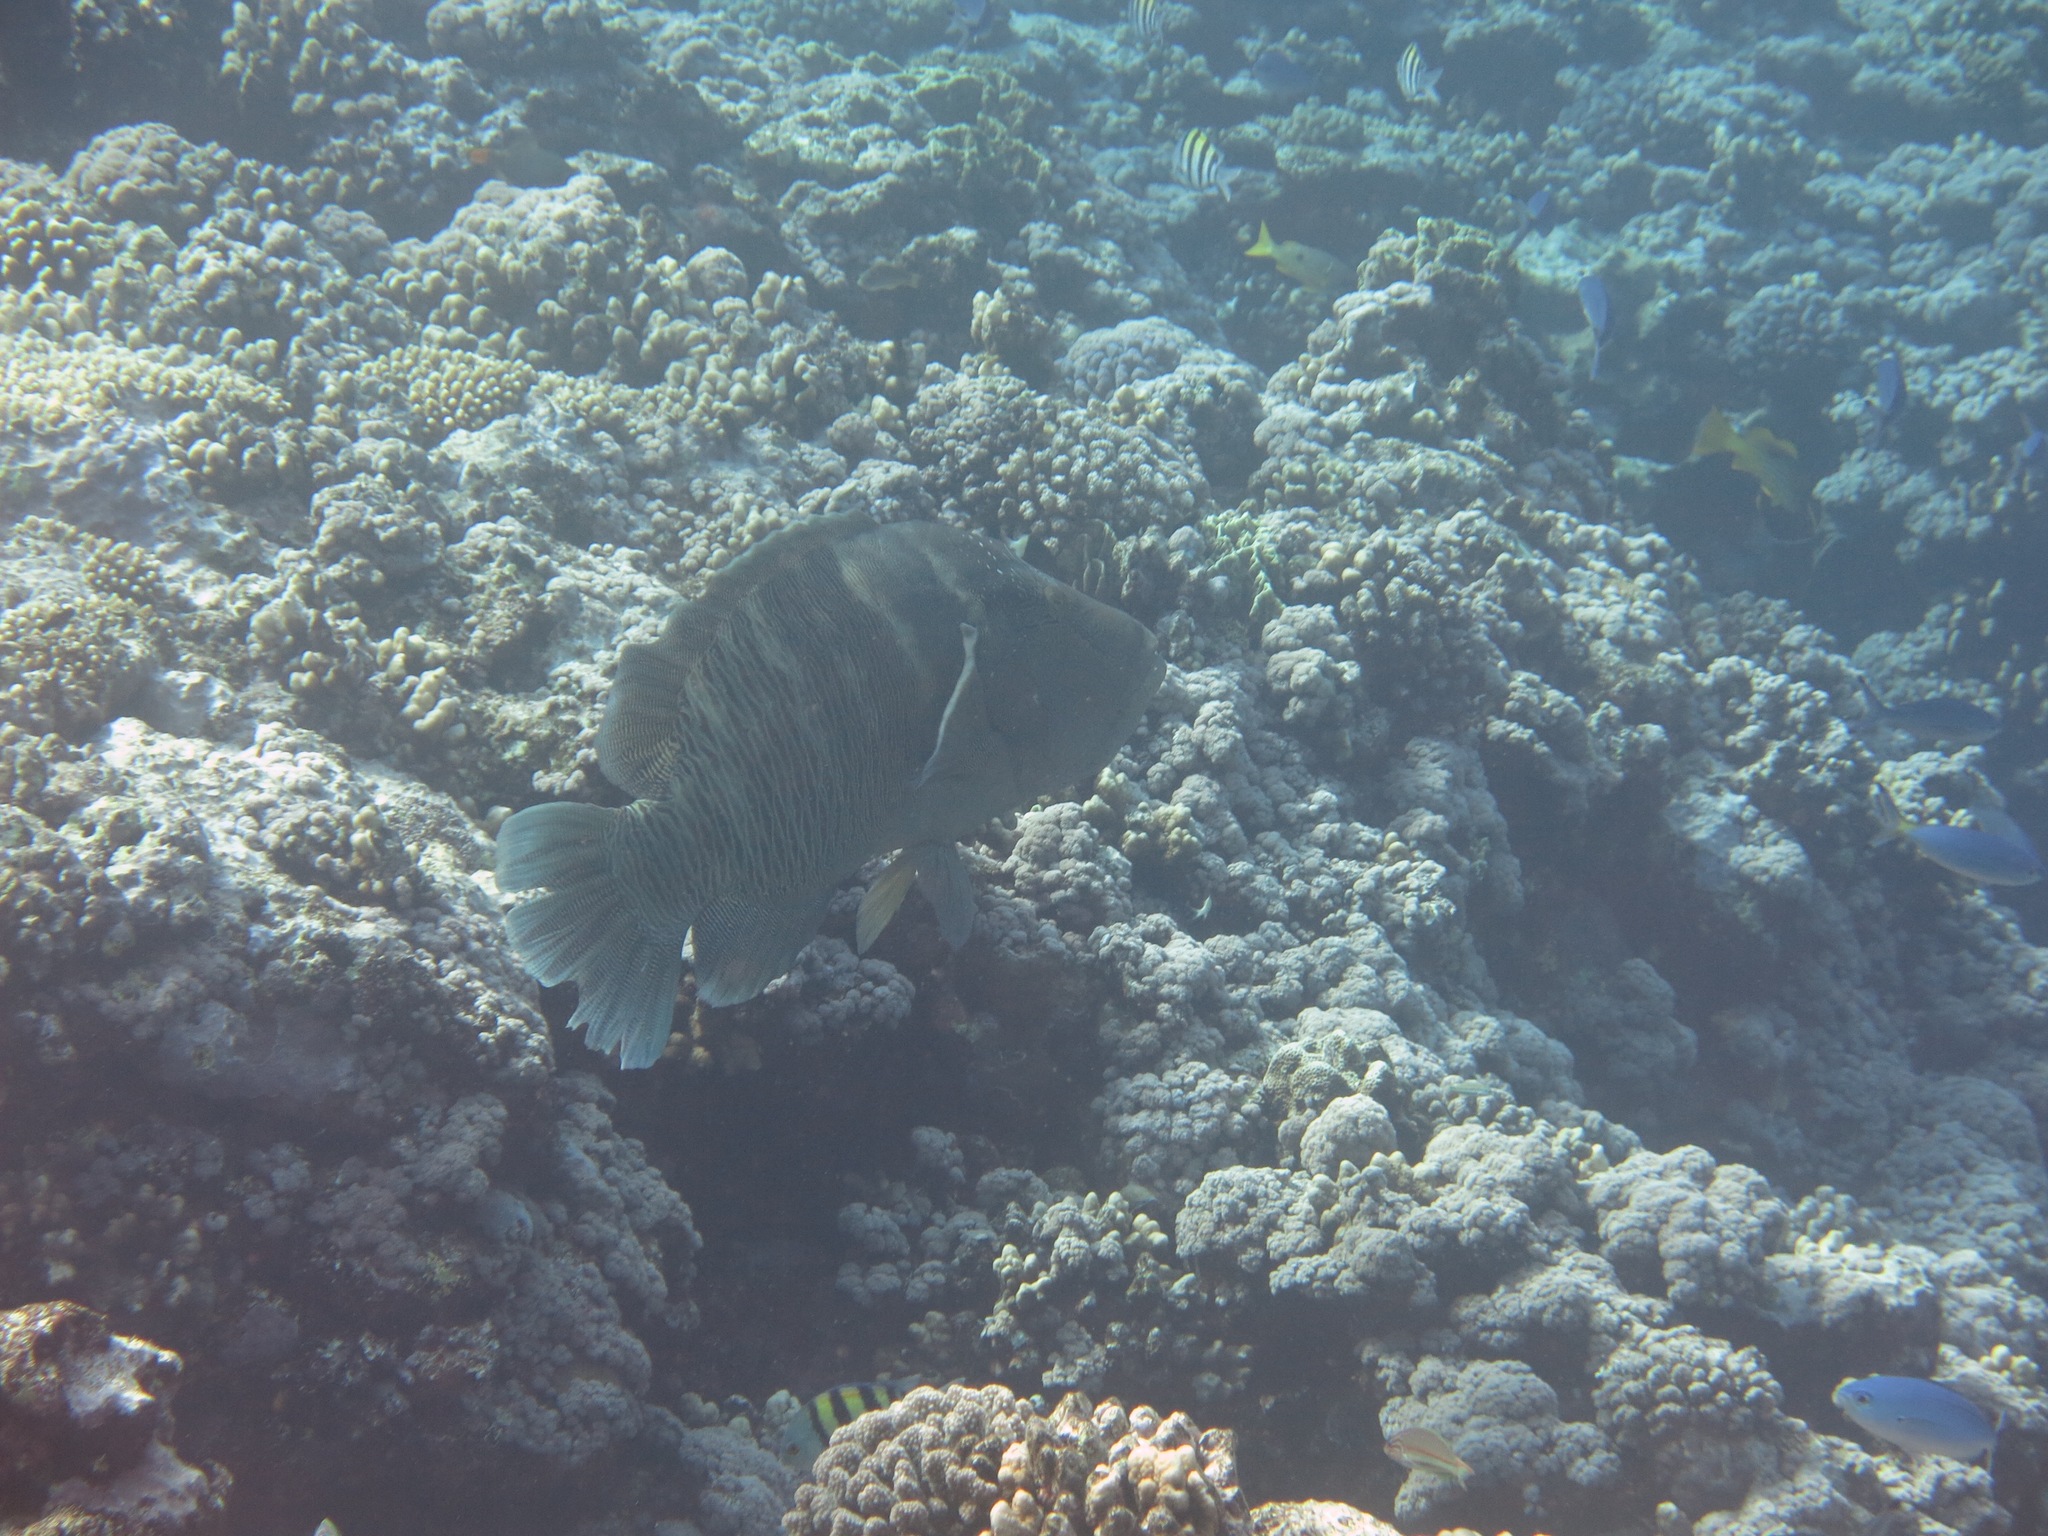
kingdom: Animalia
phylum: Chordata
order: Perciformes
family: Labridae
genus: Cheilinus
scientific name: Cheilinus undulatus
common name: Humphead wrasse
